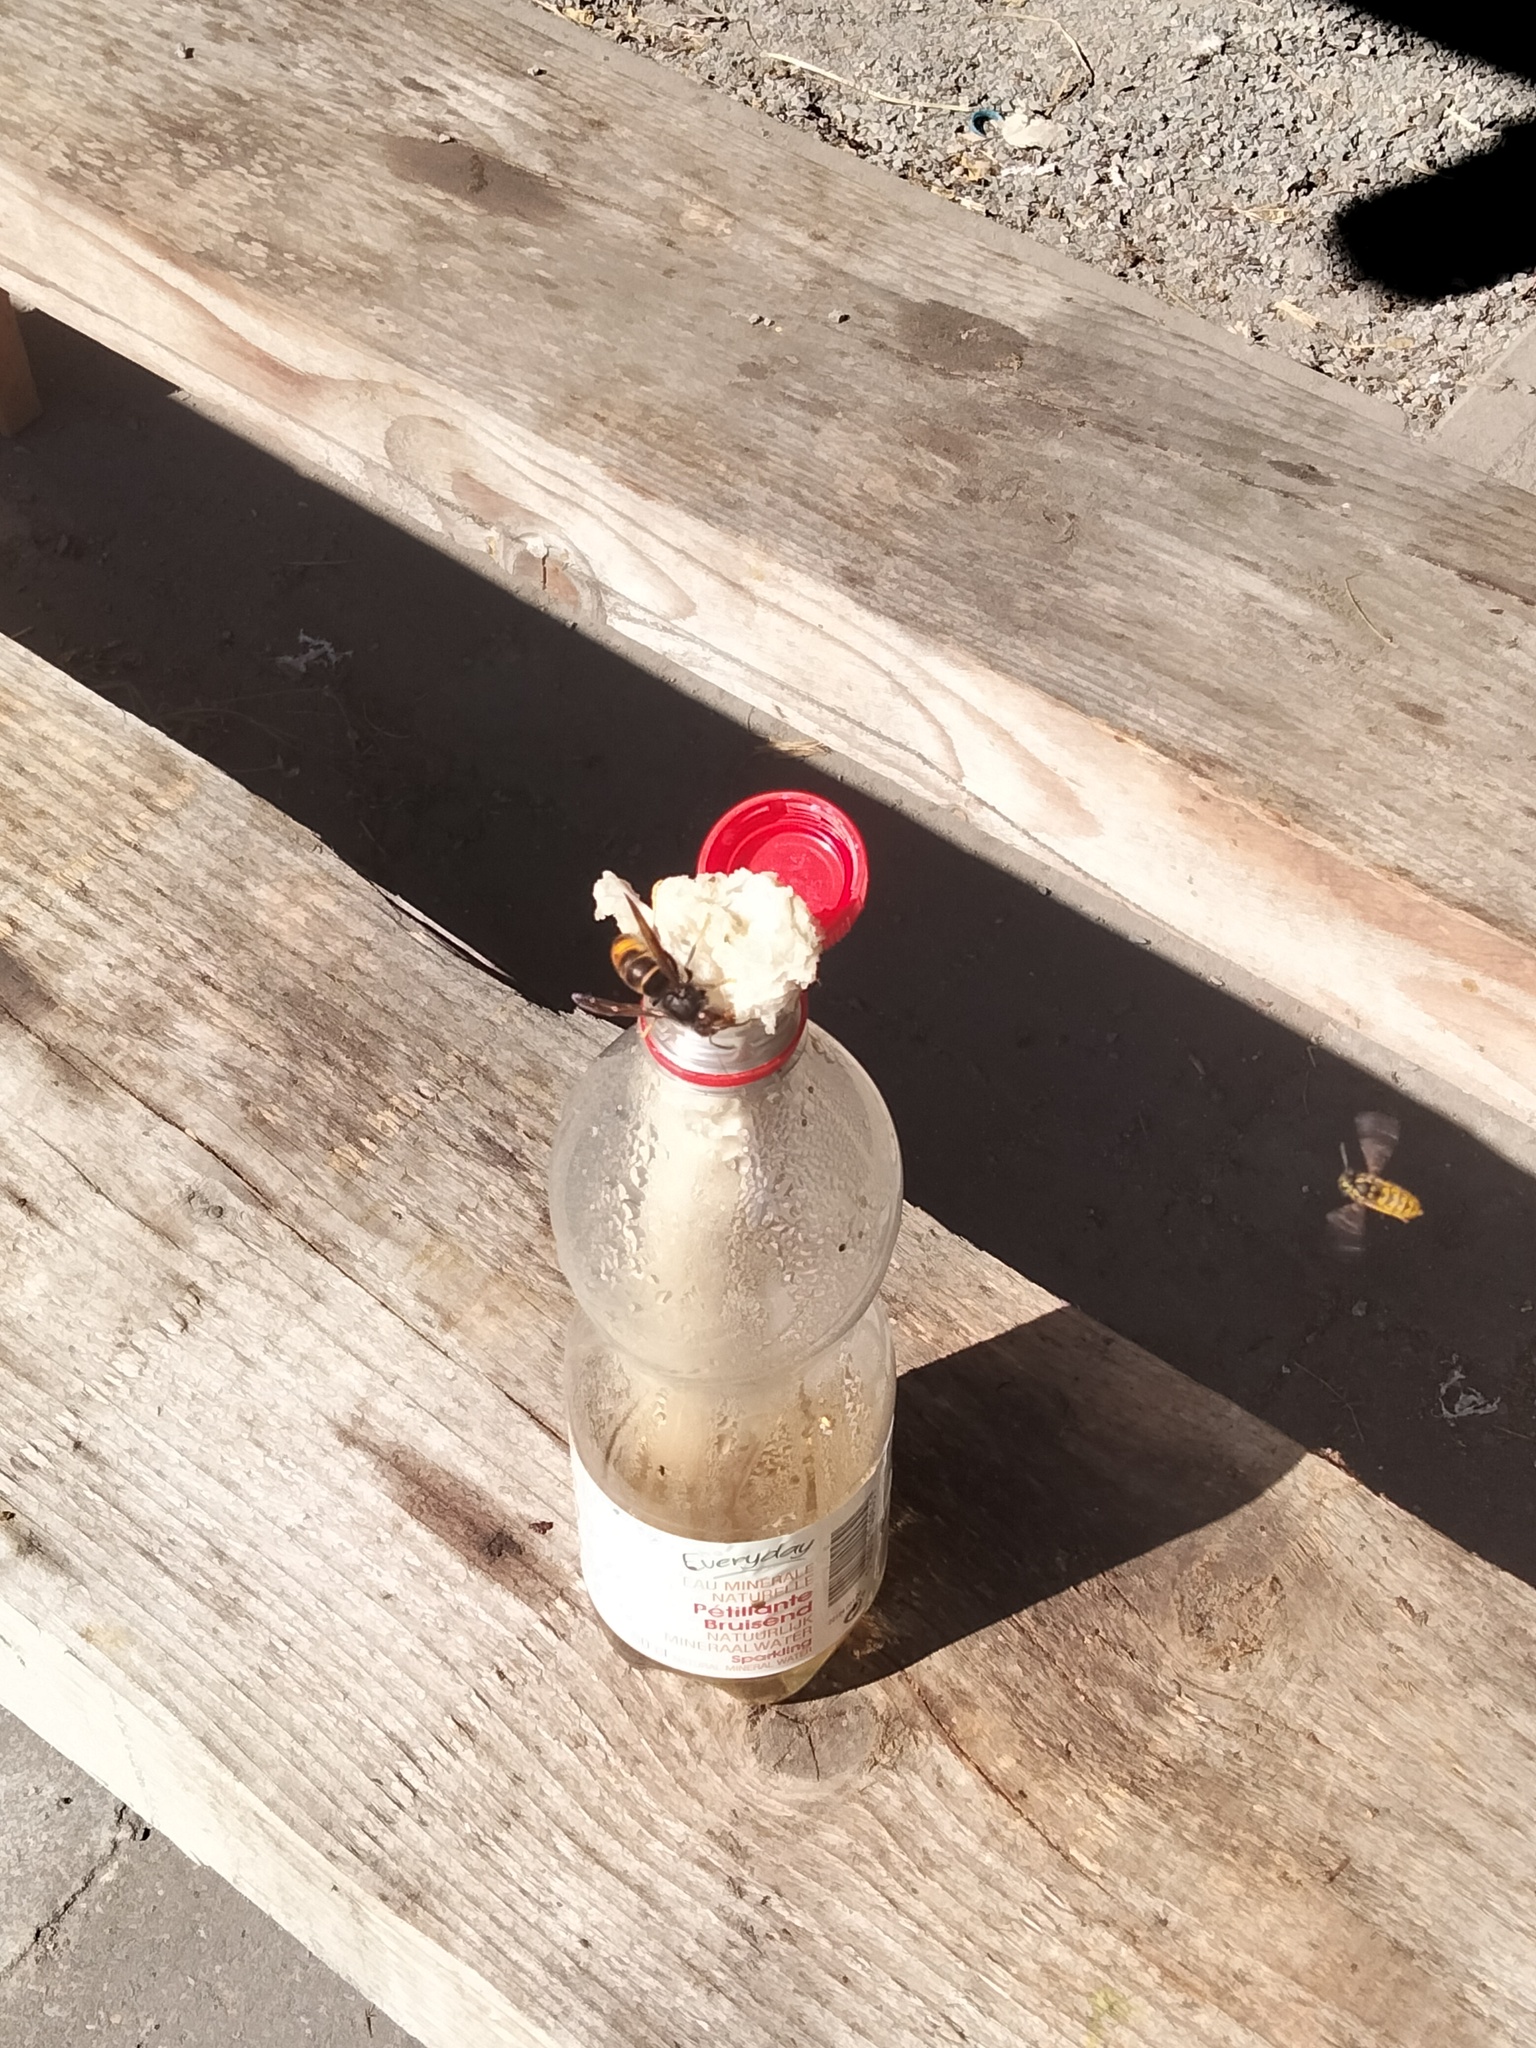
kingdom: Animalia
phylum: Arthropoda
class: Insecta
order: Hymenoptera
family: Vespidae
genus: Vespa
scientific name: Vespa velutina
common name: Asian hornet
